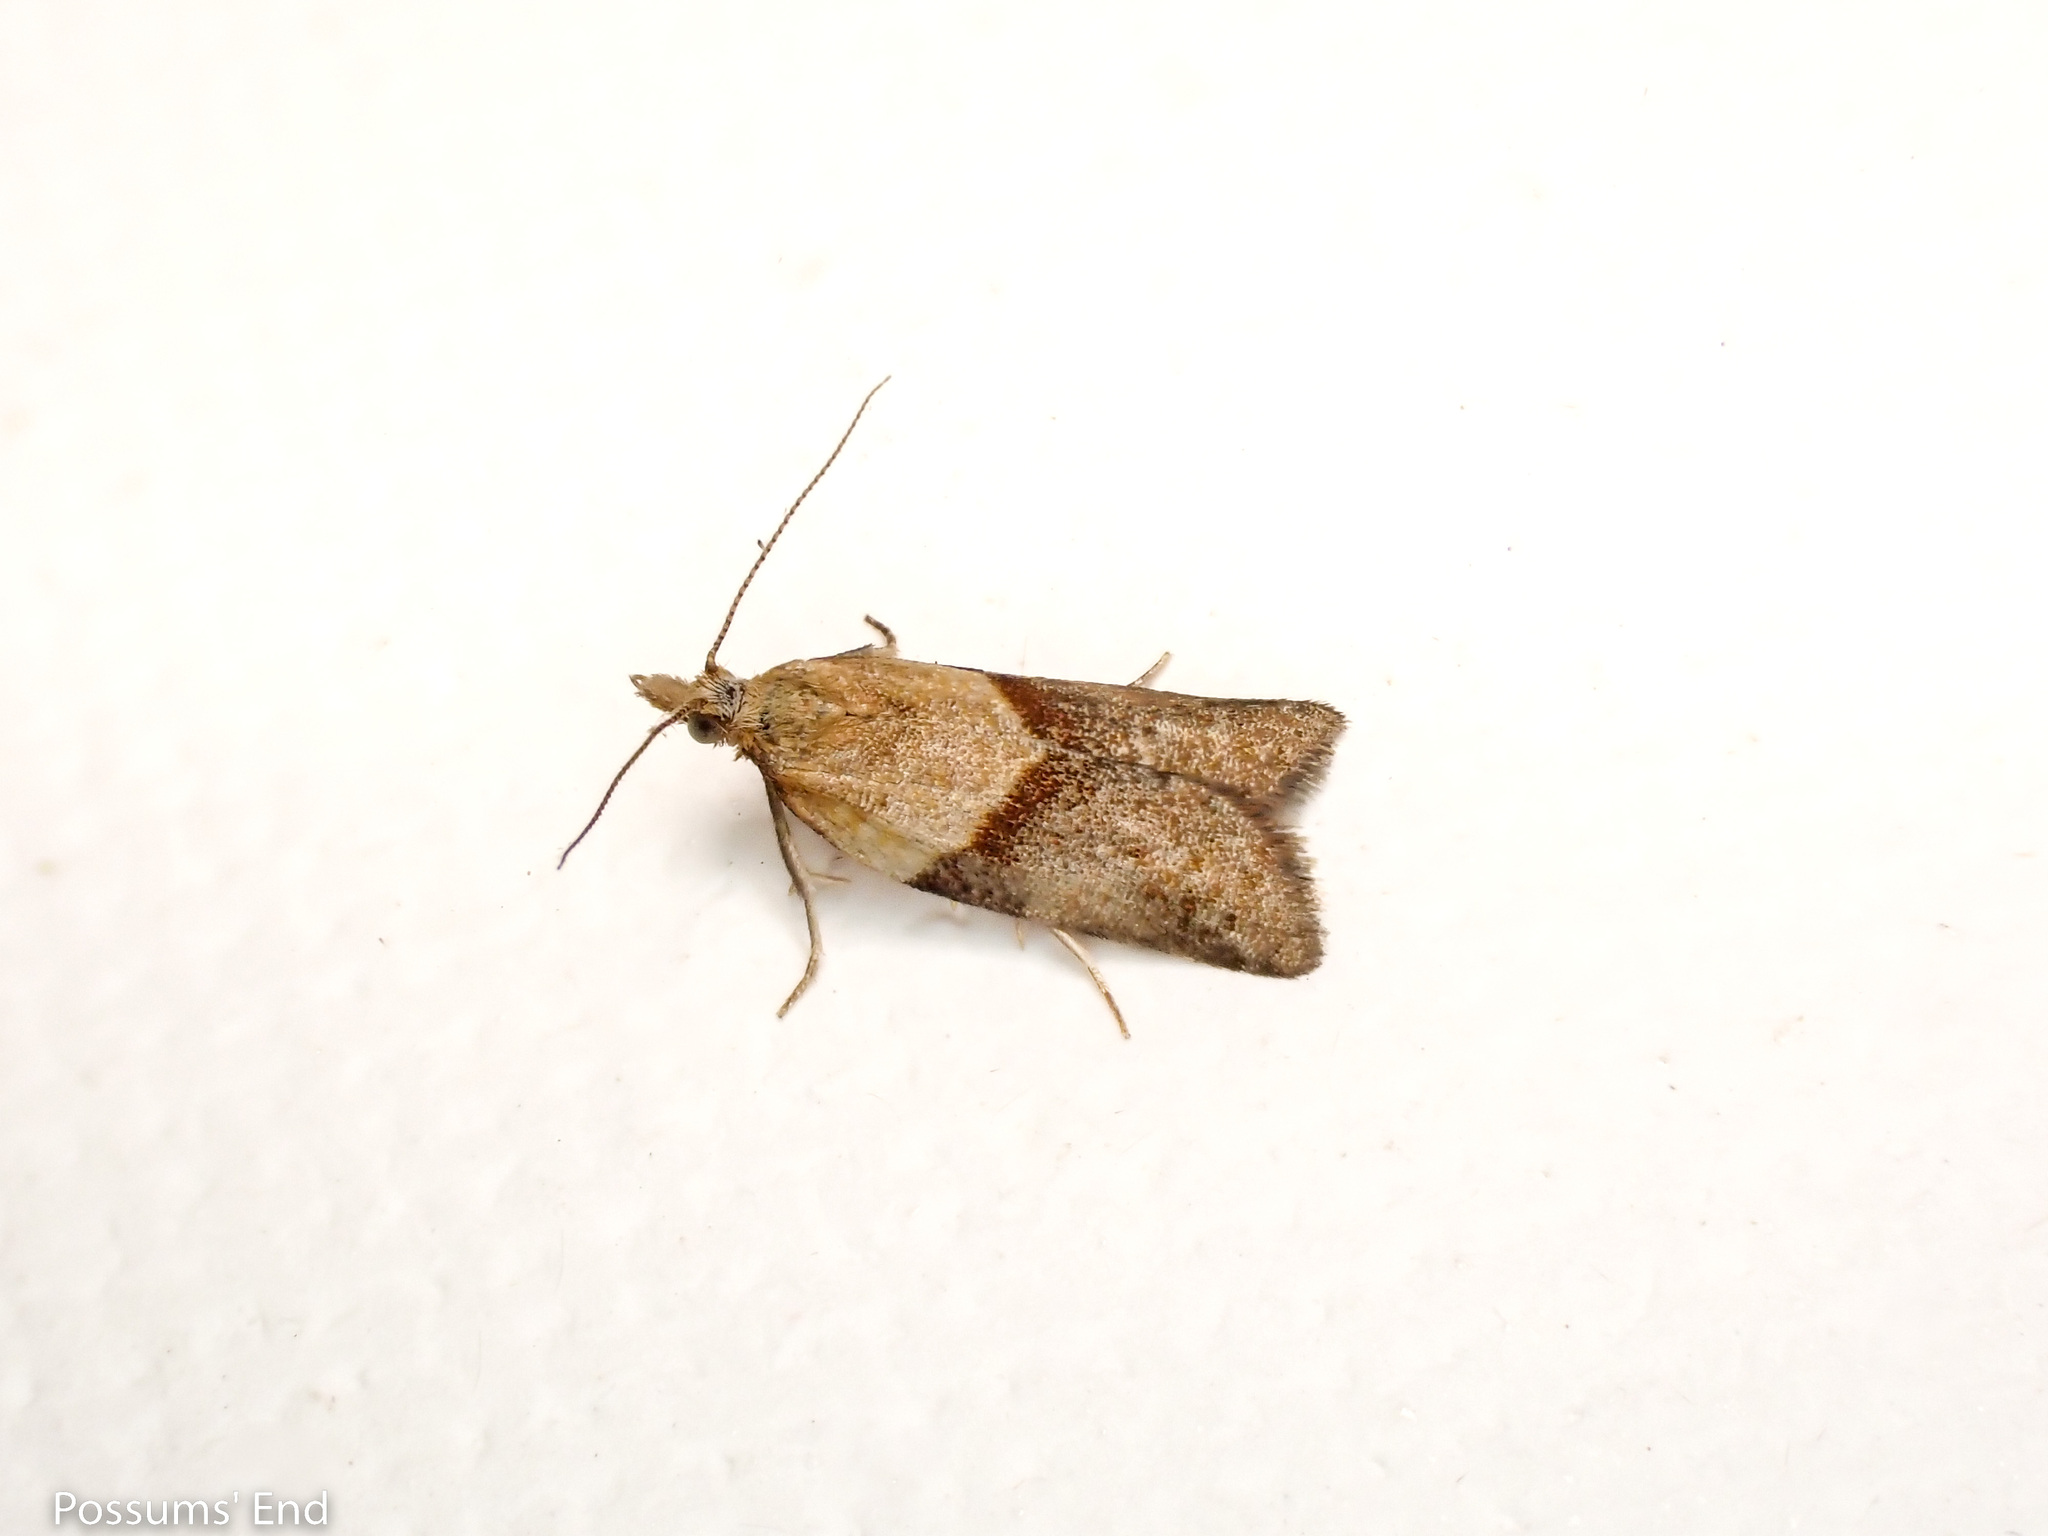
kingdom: Animalia
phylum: Arthropoda
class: Insecta
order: Lepidoptera
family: Tortricidae
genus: Epichorista
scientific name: Epichorista hemionana
